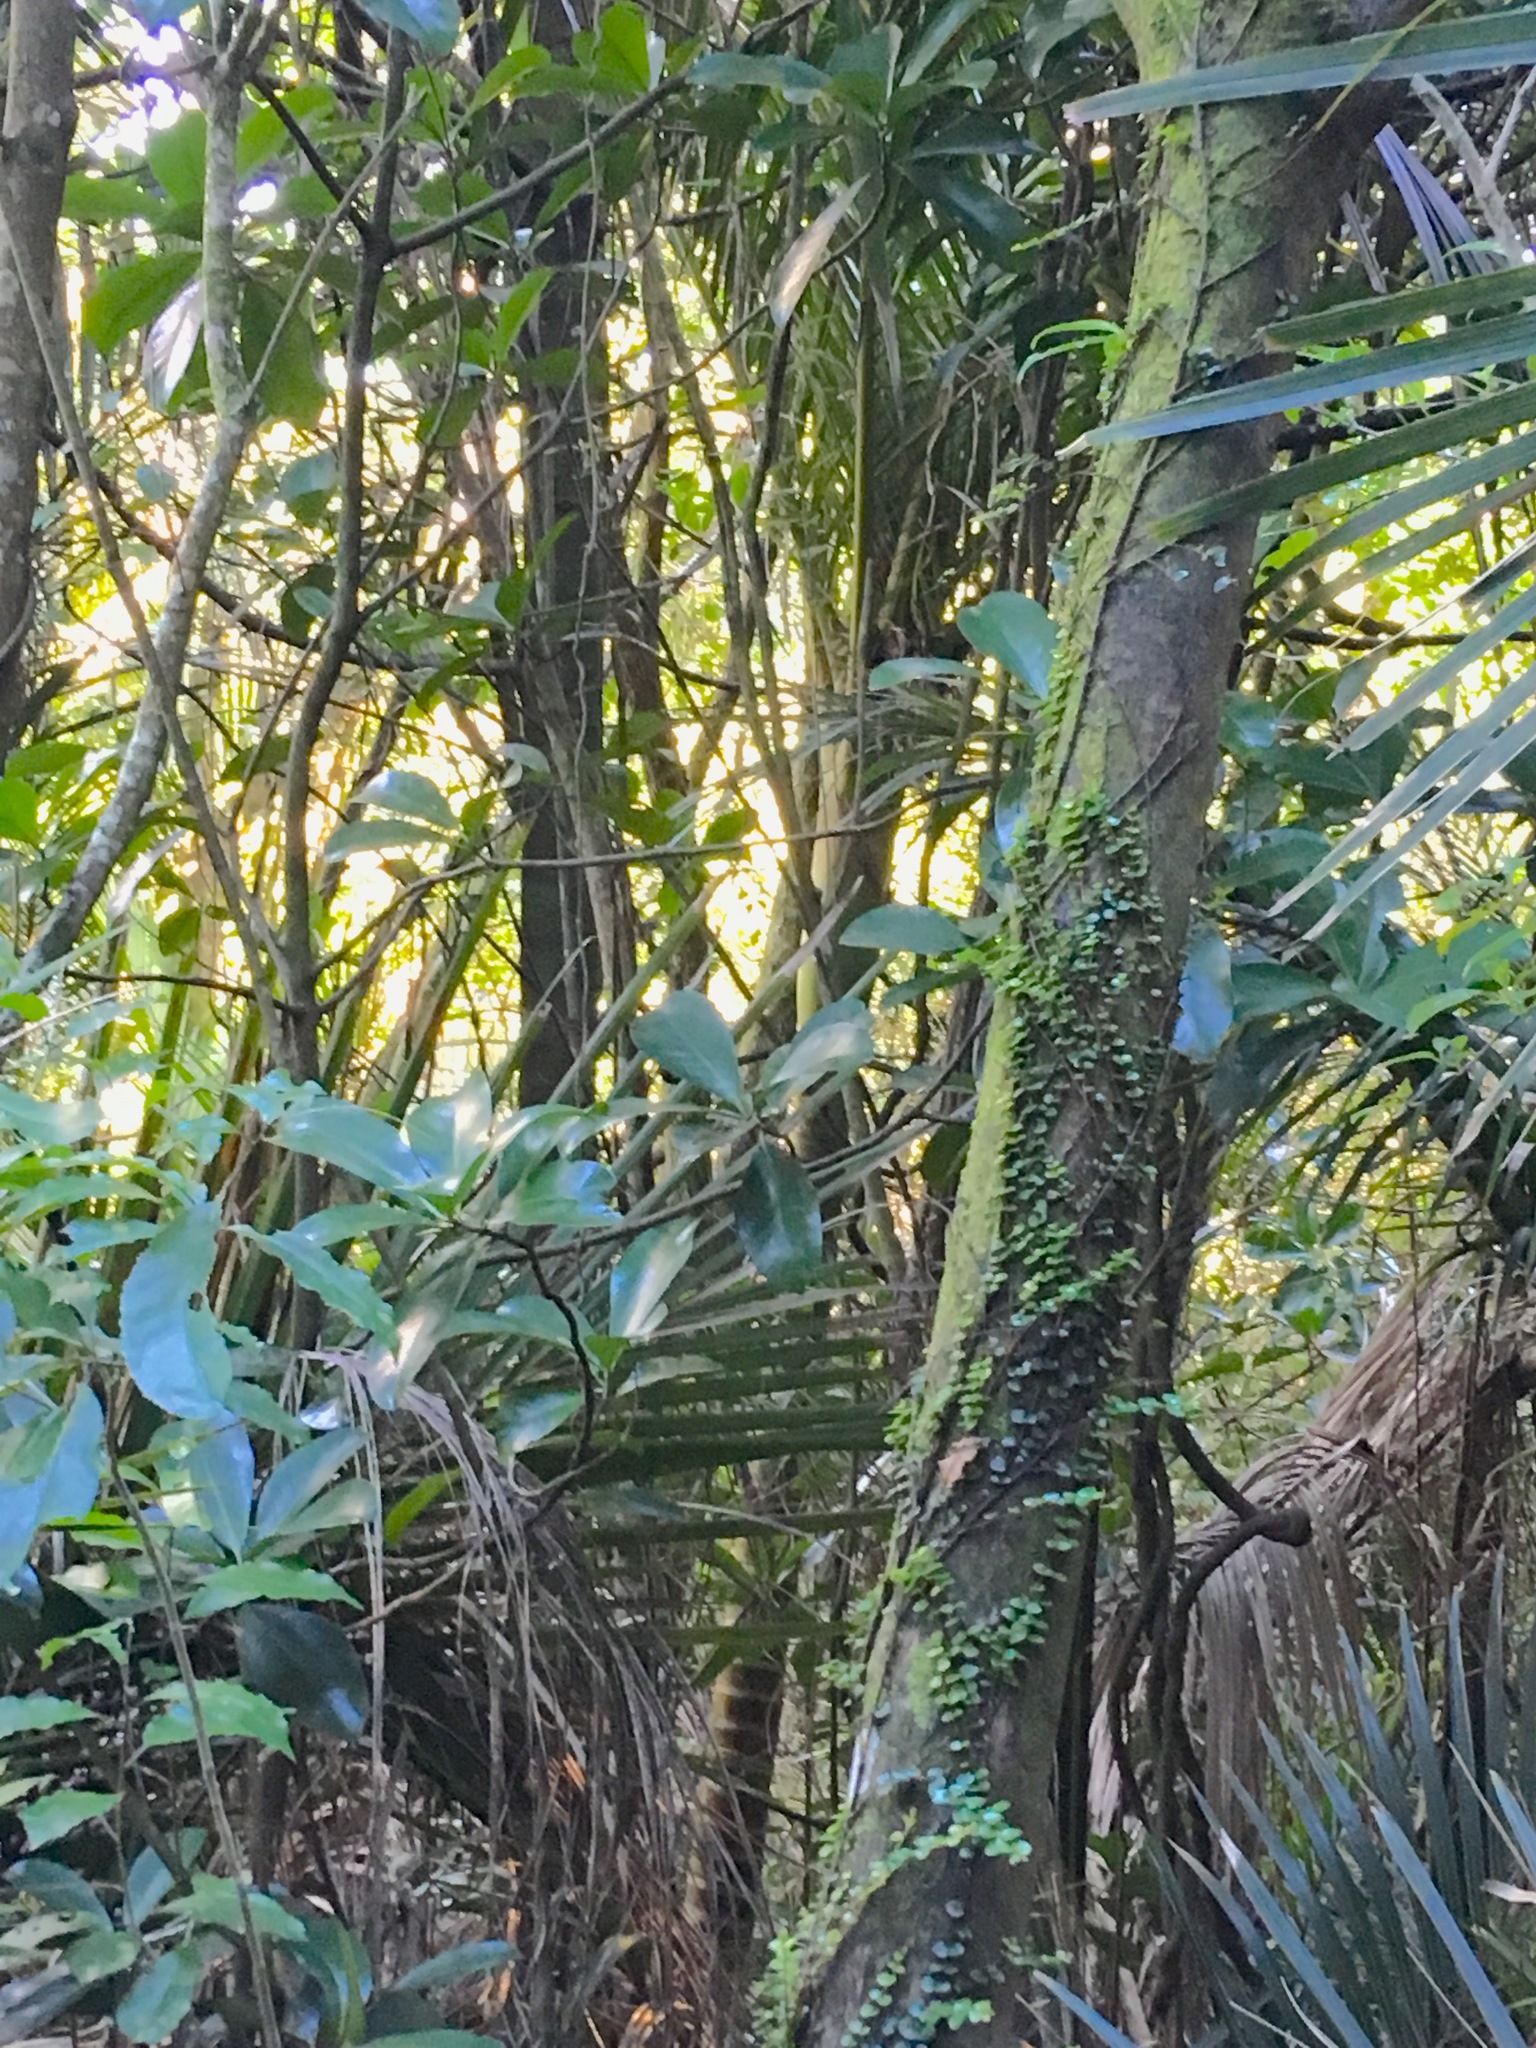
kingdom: Plantae
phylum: Tracheophyta
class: Magnoliopsida
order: Cucurbitales
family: Corynocarpaceae
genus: Corynocarpus
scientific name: Corynocarpus laevigatus
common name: New zealand laurel
